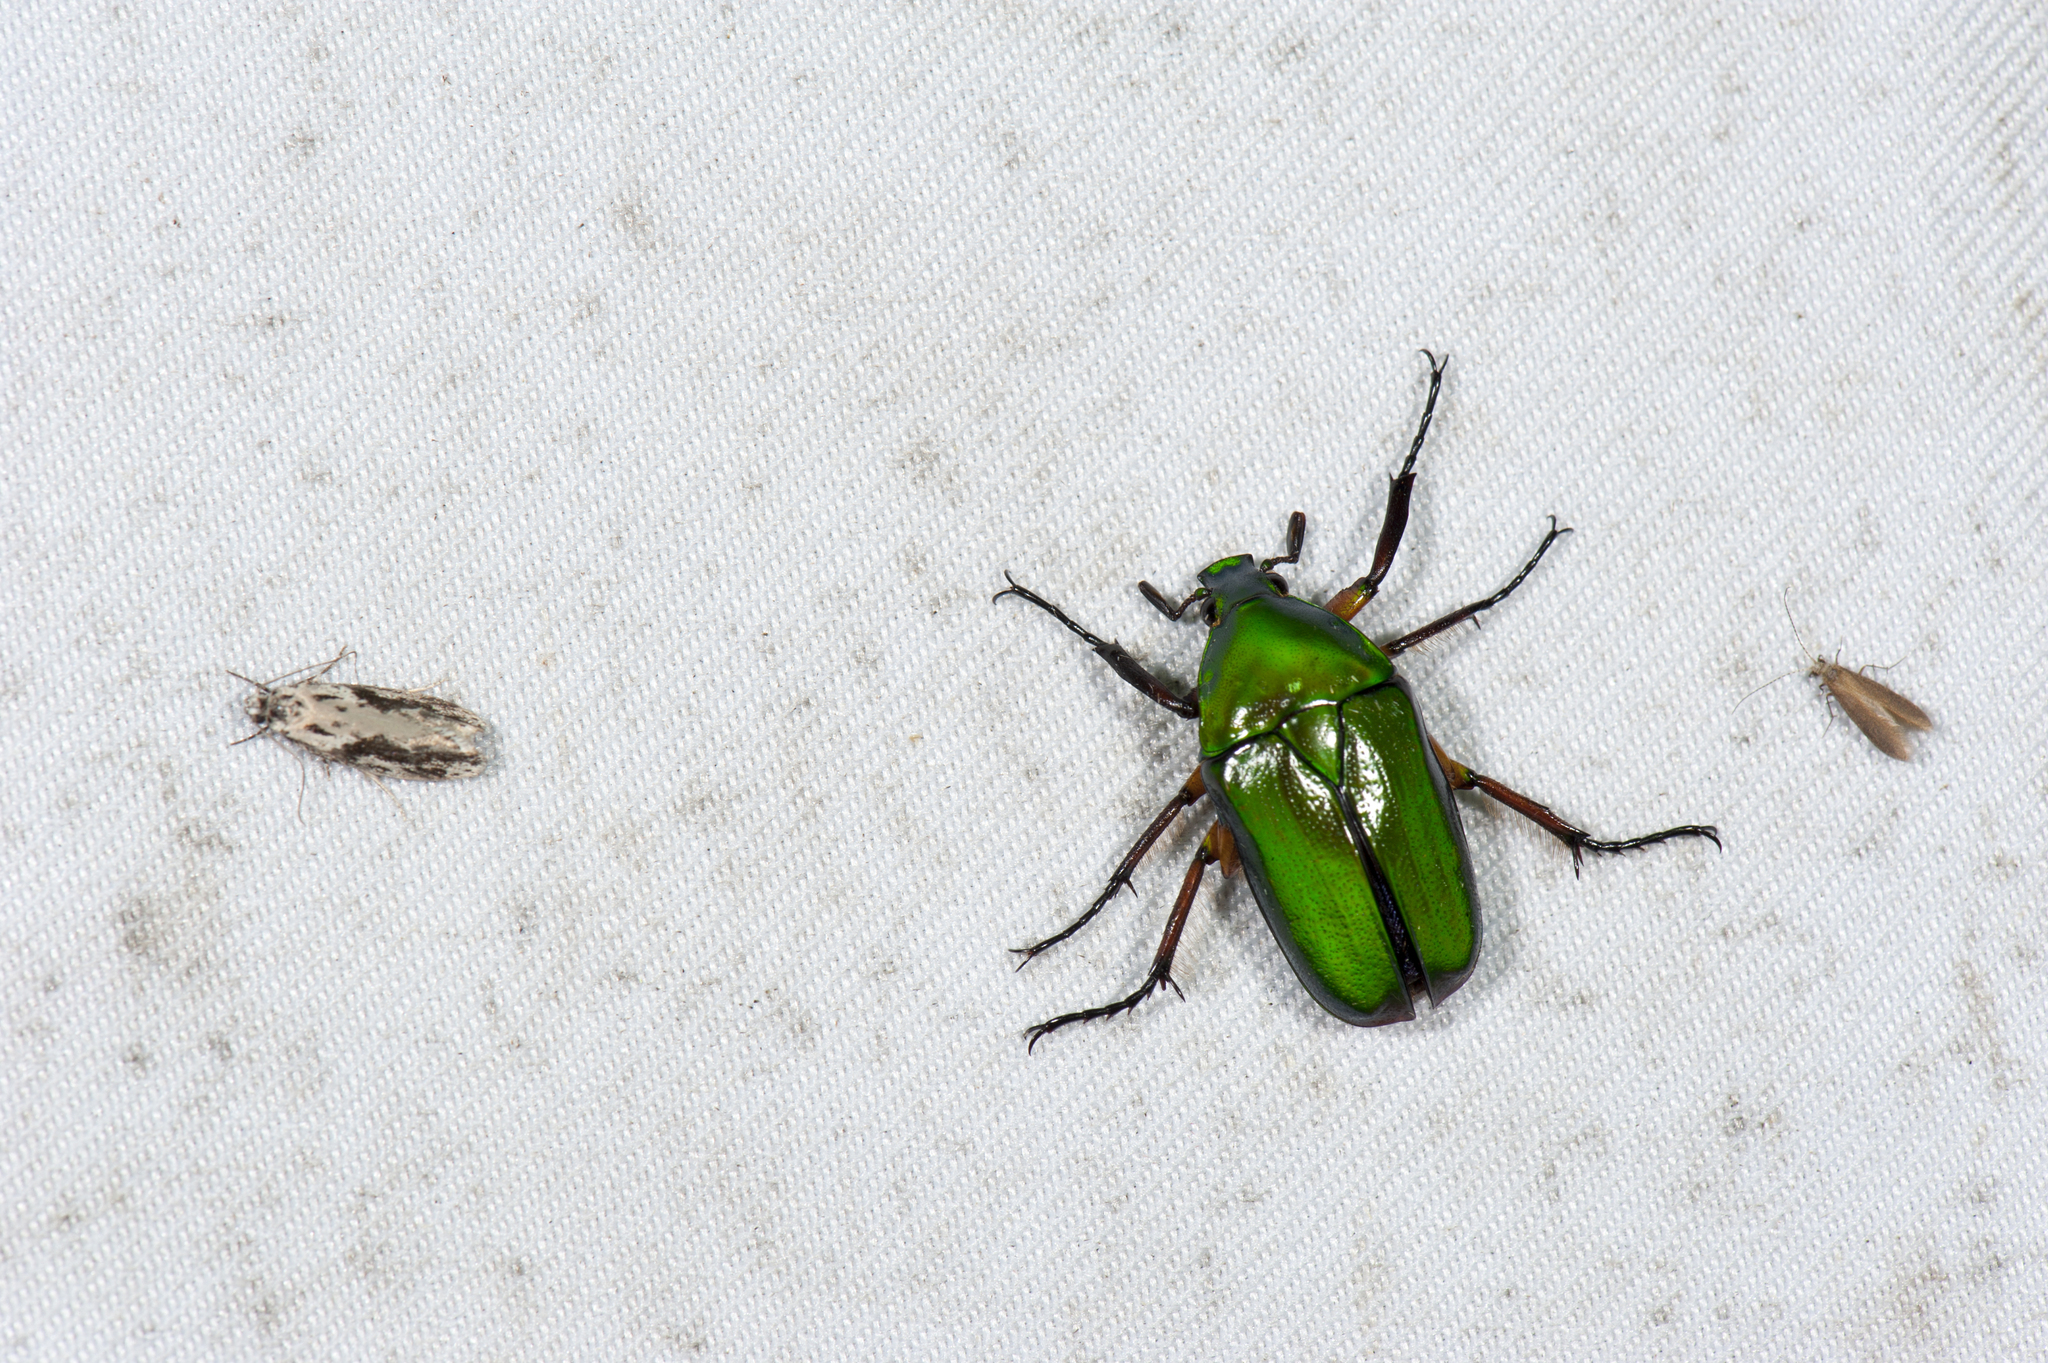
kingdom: Animalia
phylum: Arthropoda
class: Insecta
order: Coleoptera
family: Scarabaeidae
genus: Ingrisma
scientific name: Ingrisma paralleliceps
